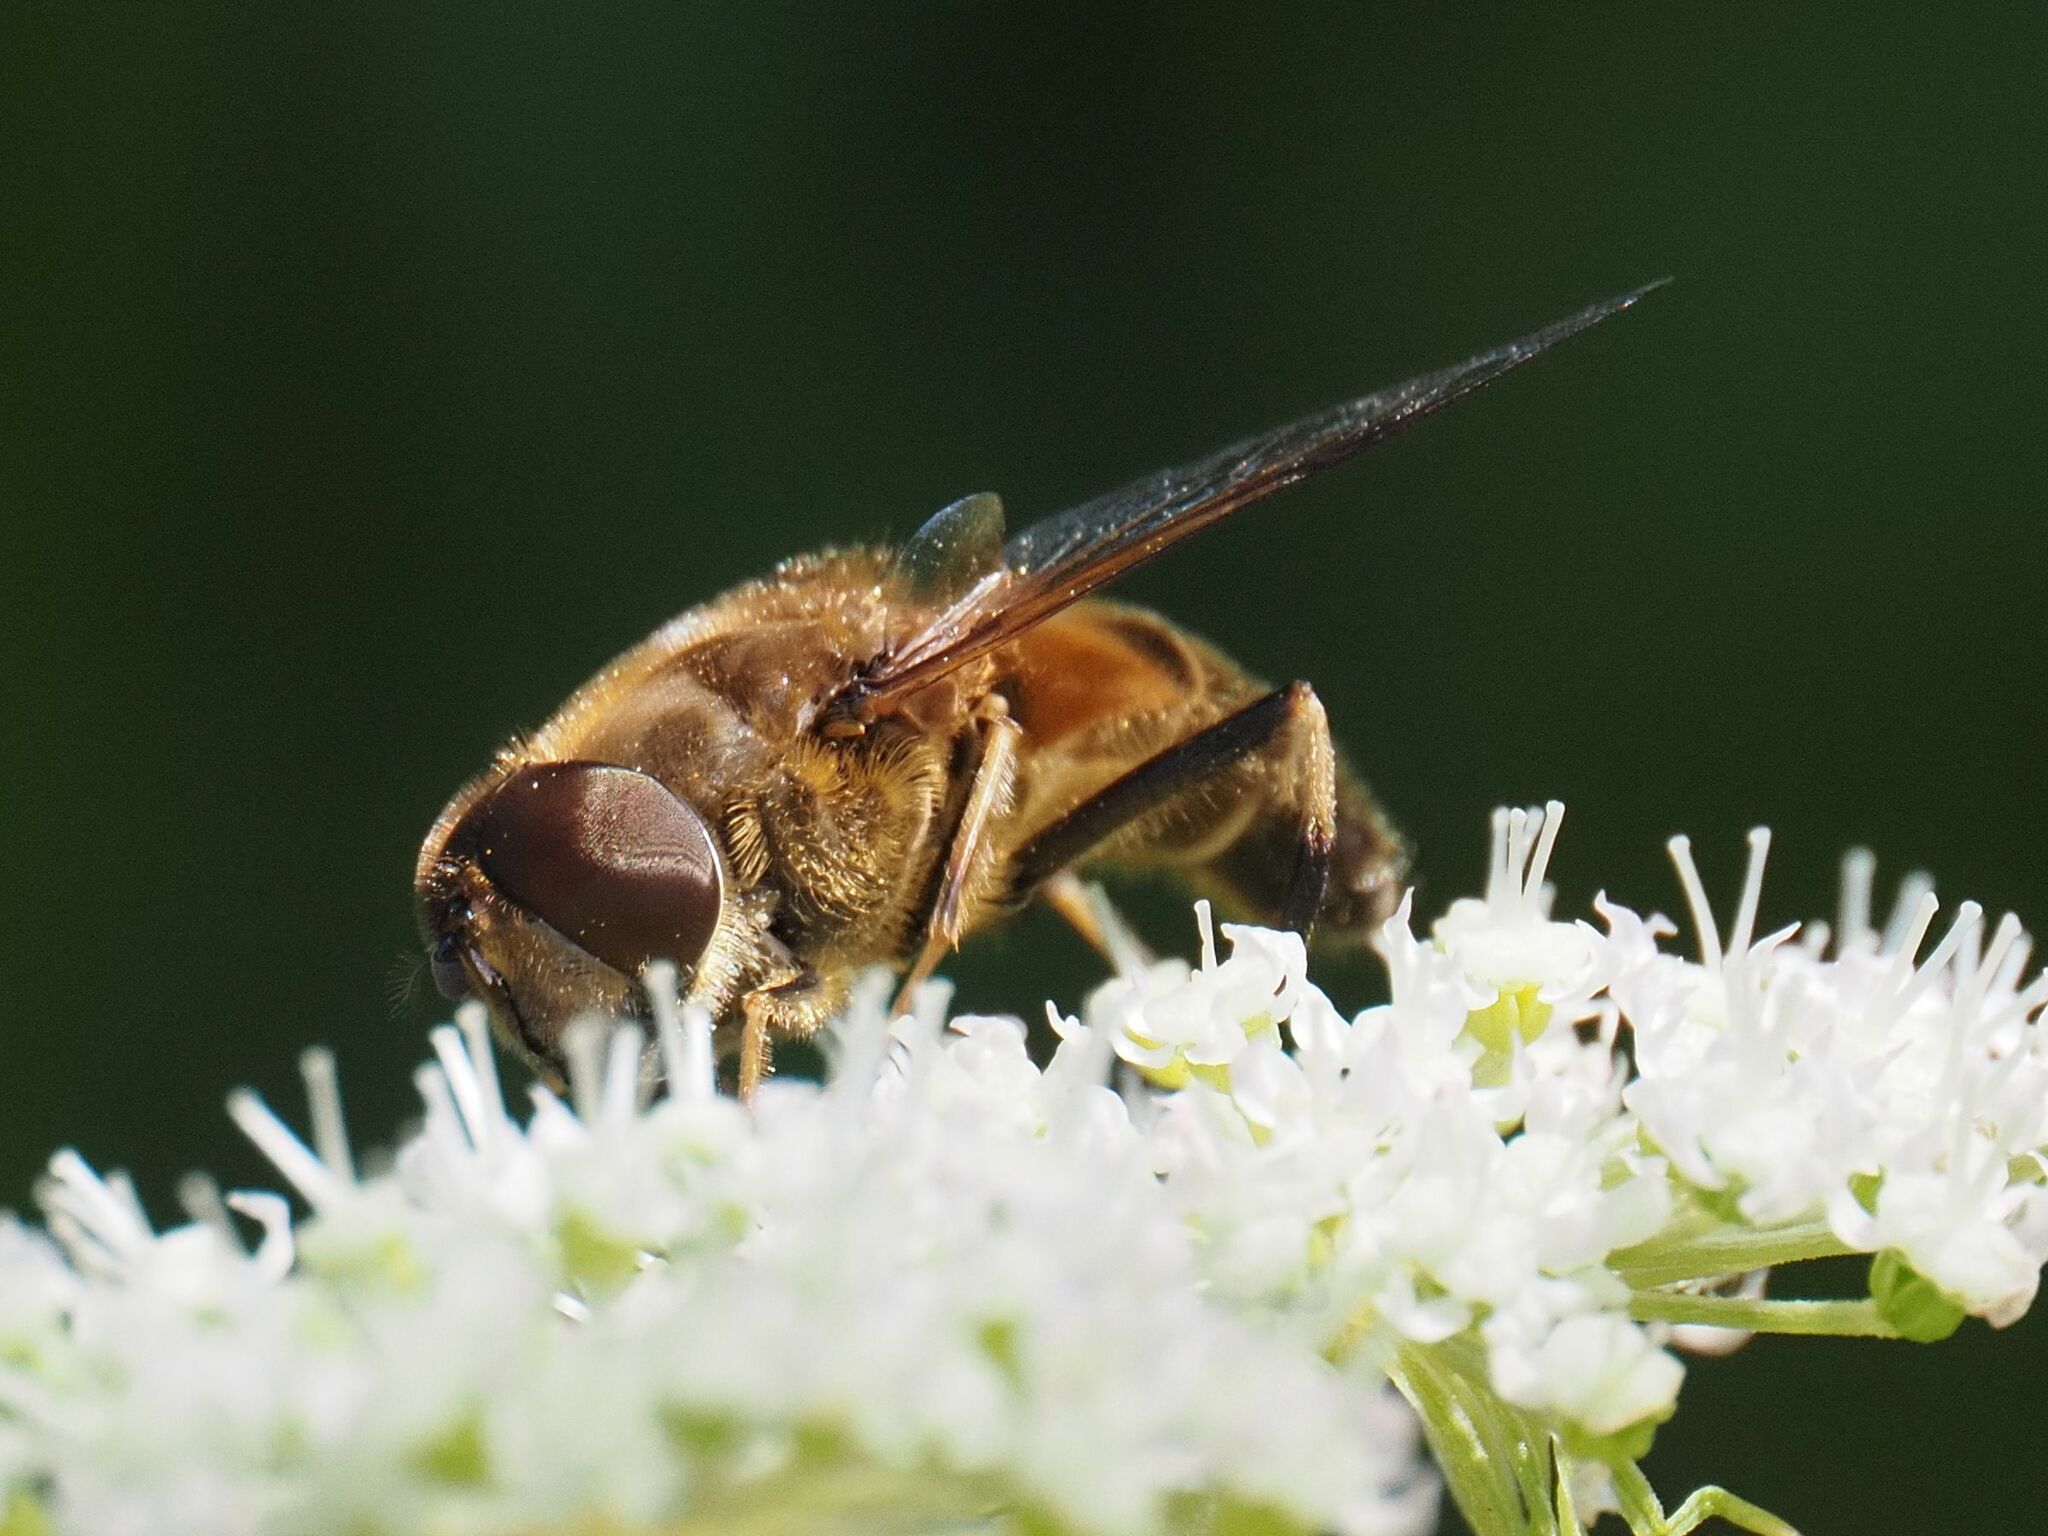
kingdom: Animalia
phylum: Arthropoda
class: Insecta
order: Diptera
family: Syrphidae
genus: Eristalis
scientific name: Eristalis pertinax
